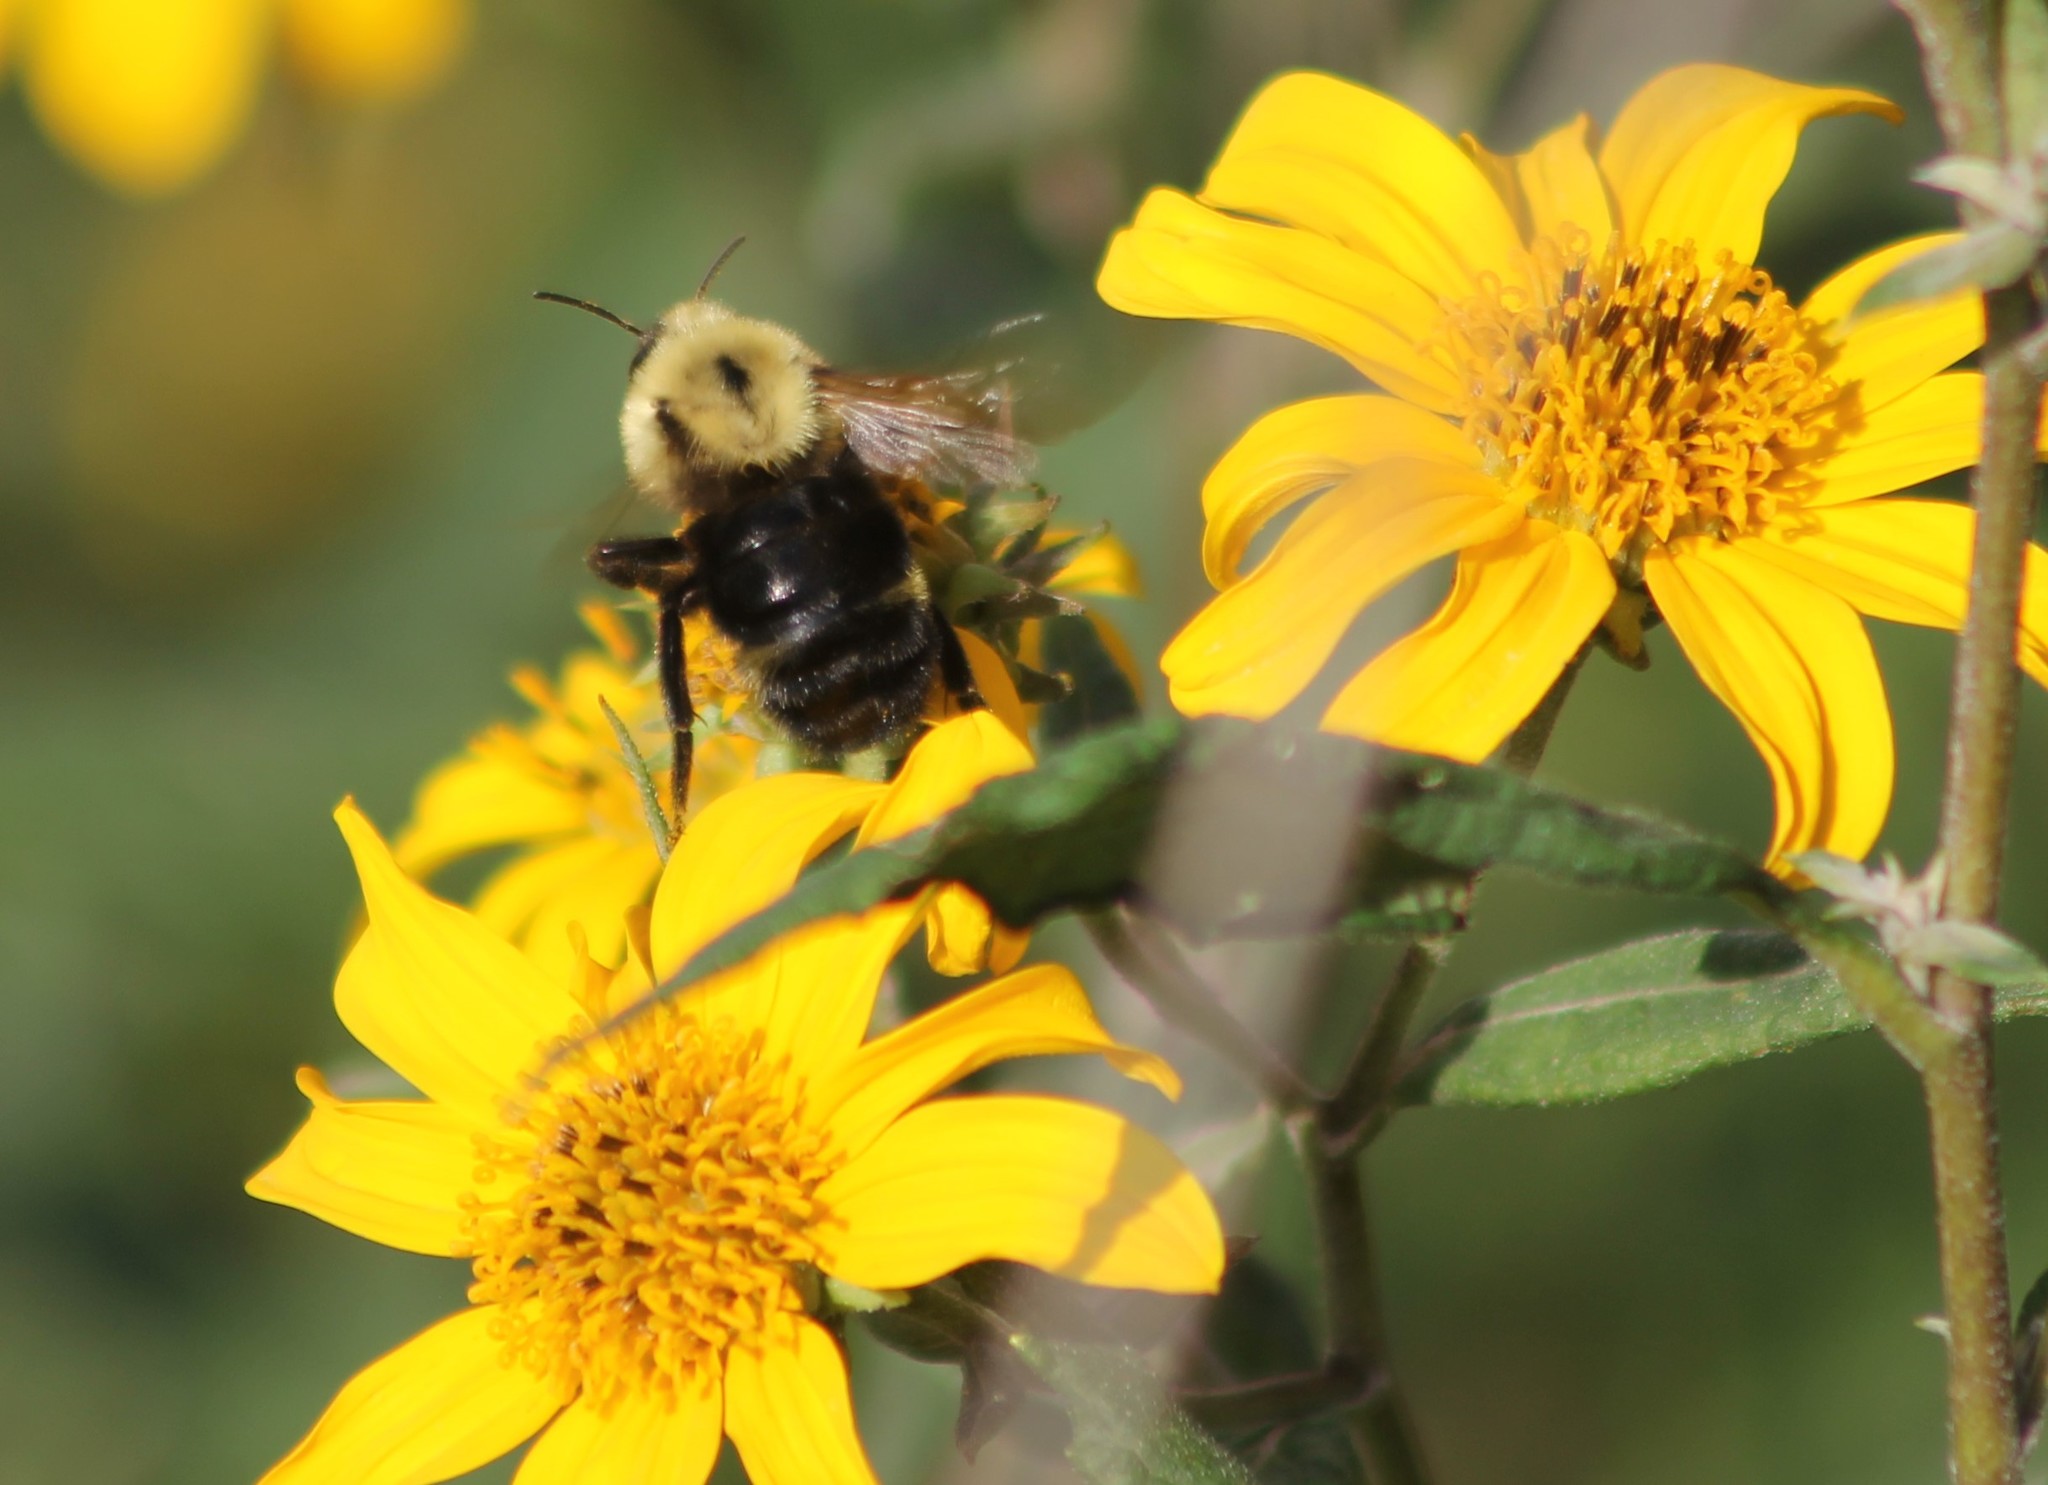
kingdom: Animalia
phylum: Arthropoda
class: Insecta
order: Hymenoptera
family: Apidae
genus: Bombus
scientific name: Bombus citrinus
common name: Lemon cuckoo bumble bee
